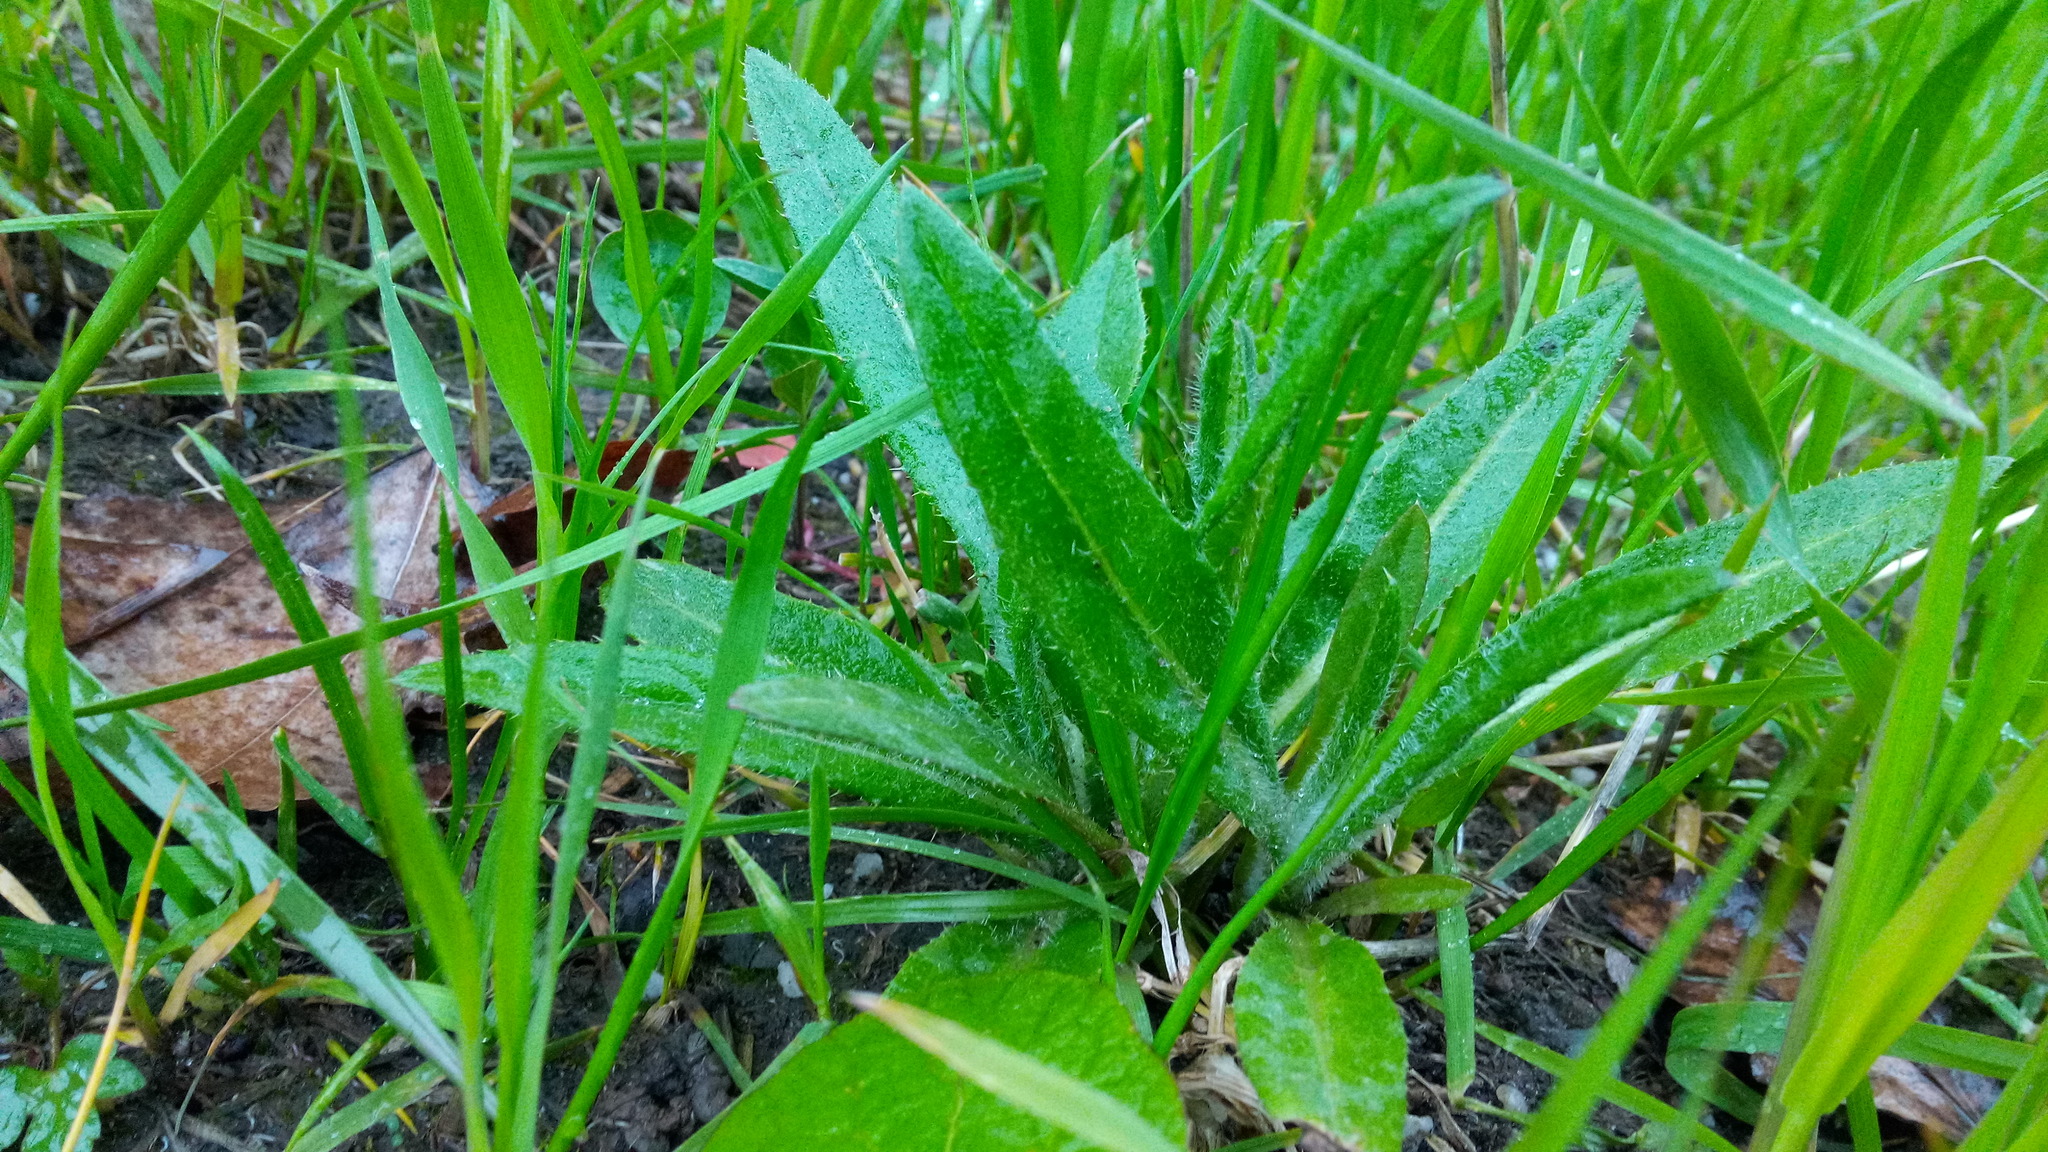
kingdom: Plantae
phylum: Tracheophyta
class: Magnoliopsida
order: Asterales
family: Asteraceae
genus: Cirsium
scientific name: Cirsium arvense
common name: Creeping thistle
